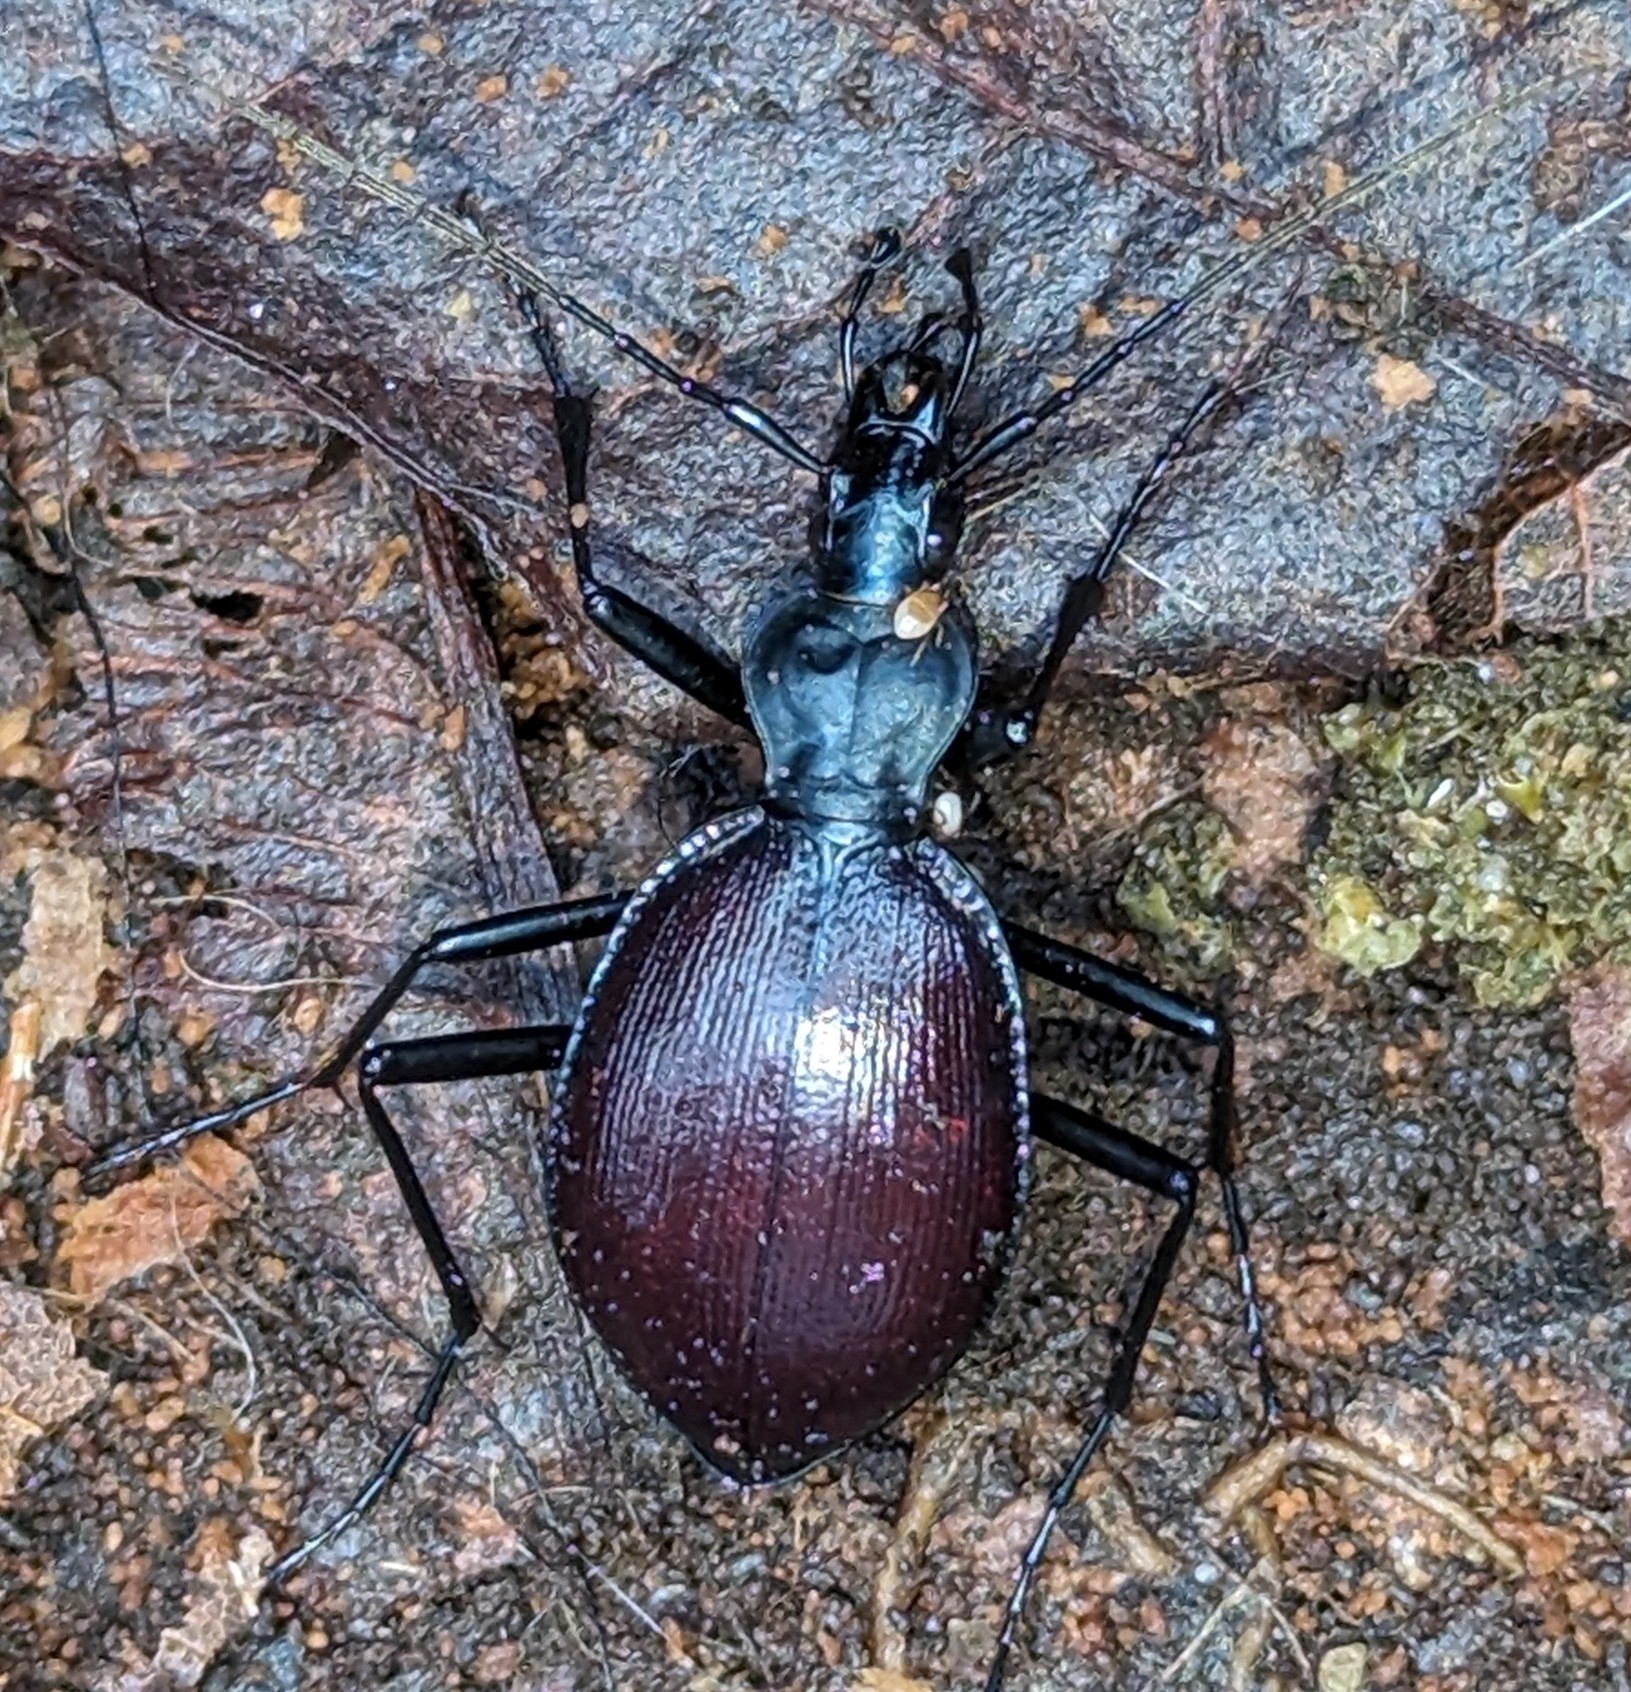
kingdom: Animalia
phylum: Arthropoda
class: Insecta
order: Coleoptera
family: Carabidae
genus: Scaphinotus
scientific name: Scaphinotus angusticollis
